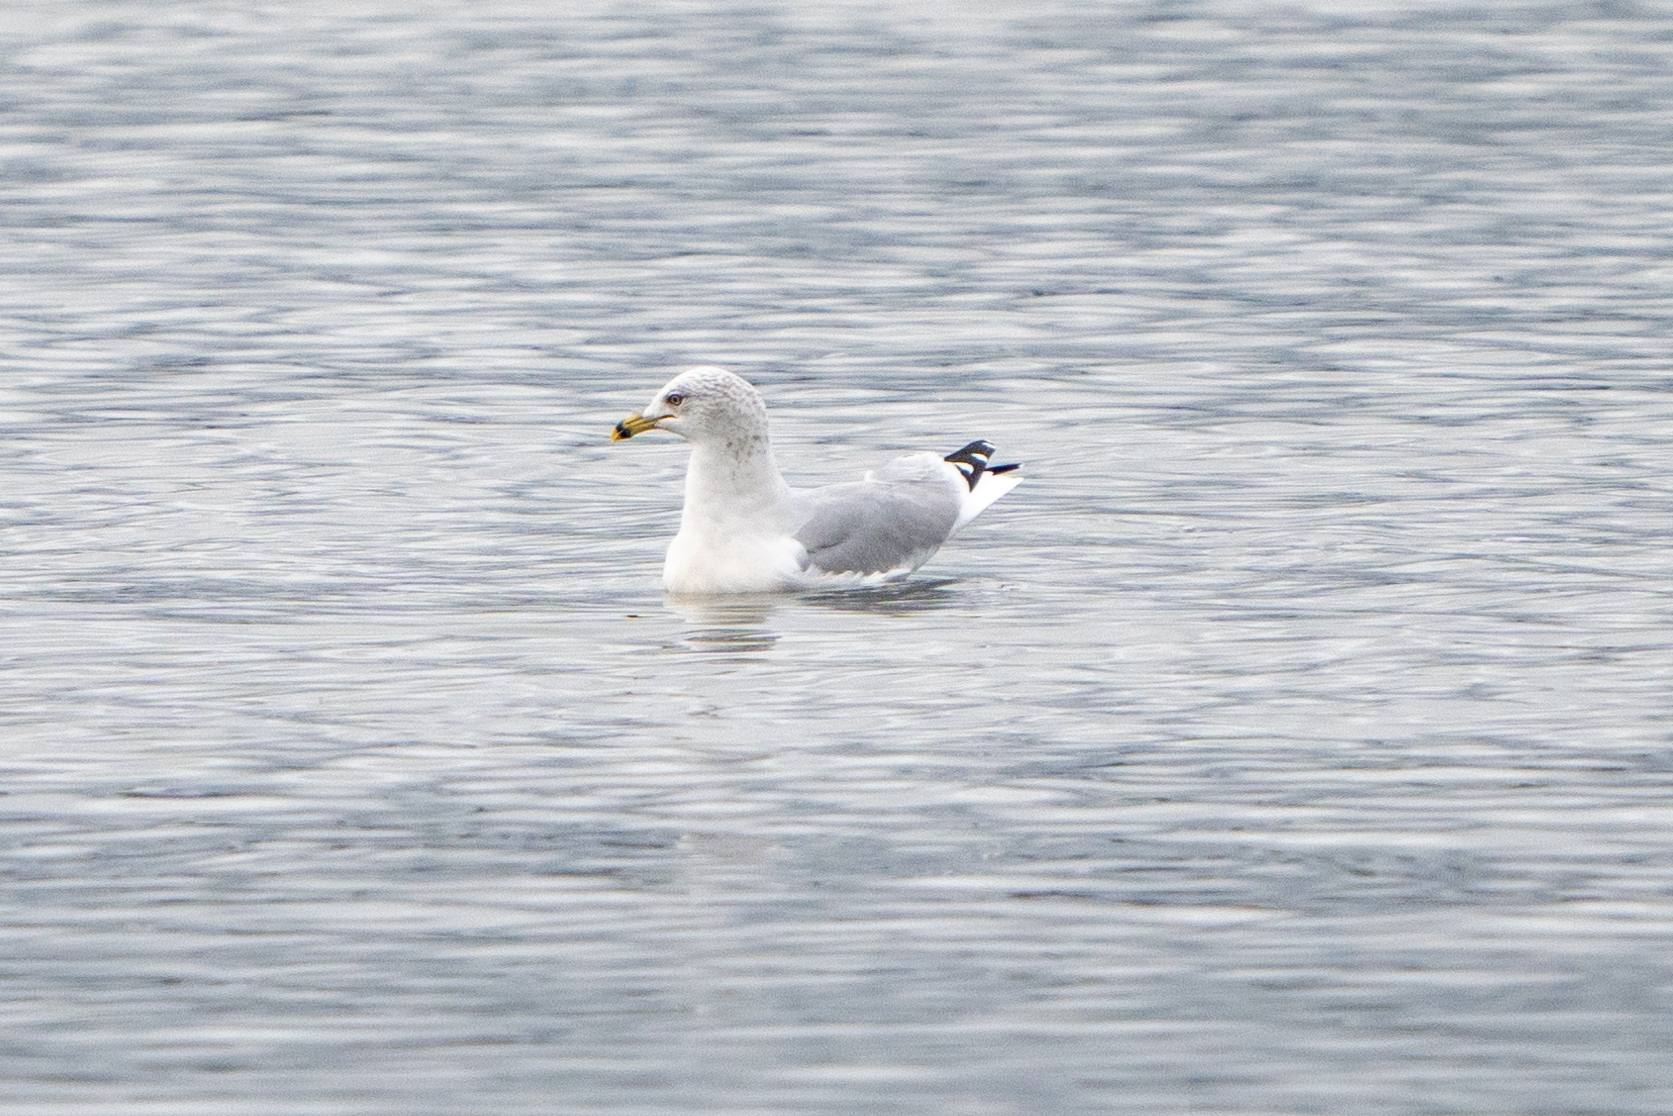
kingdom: Animalia
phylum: Chordata
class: Aves
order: Charadriiformes
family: Laridae
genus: Larus
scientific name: Larus delawarensis
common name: Ring-billed gull
